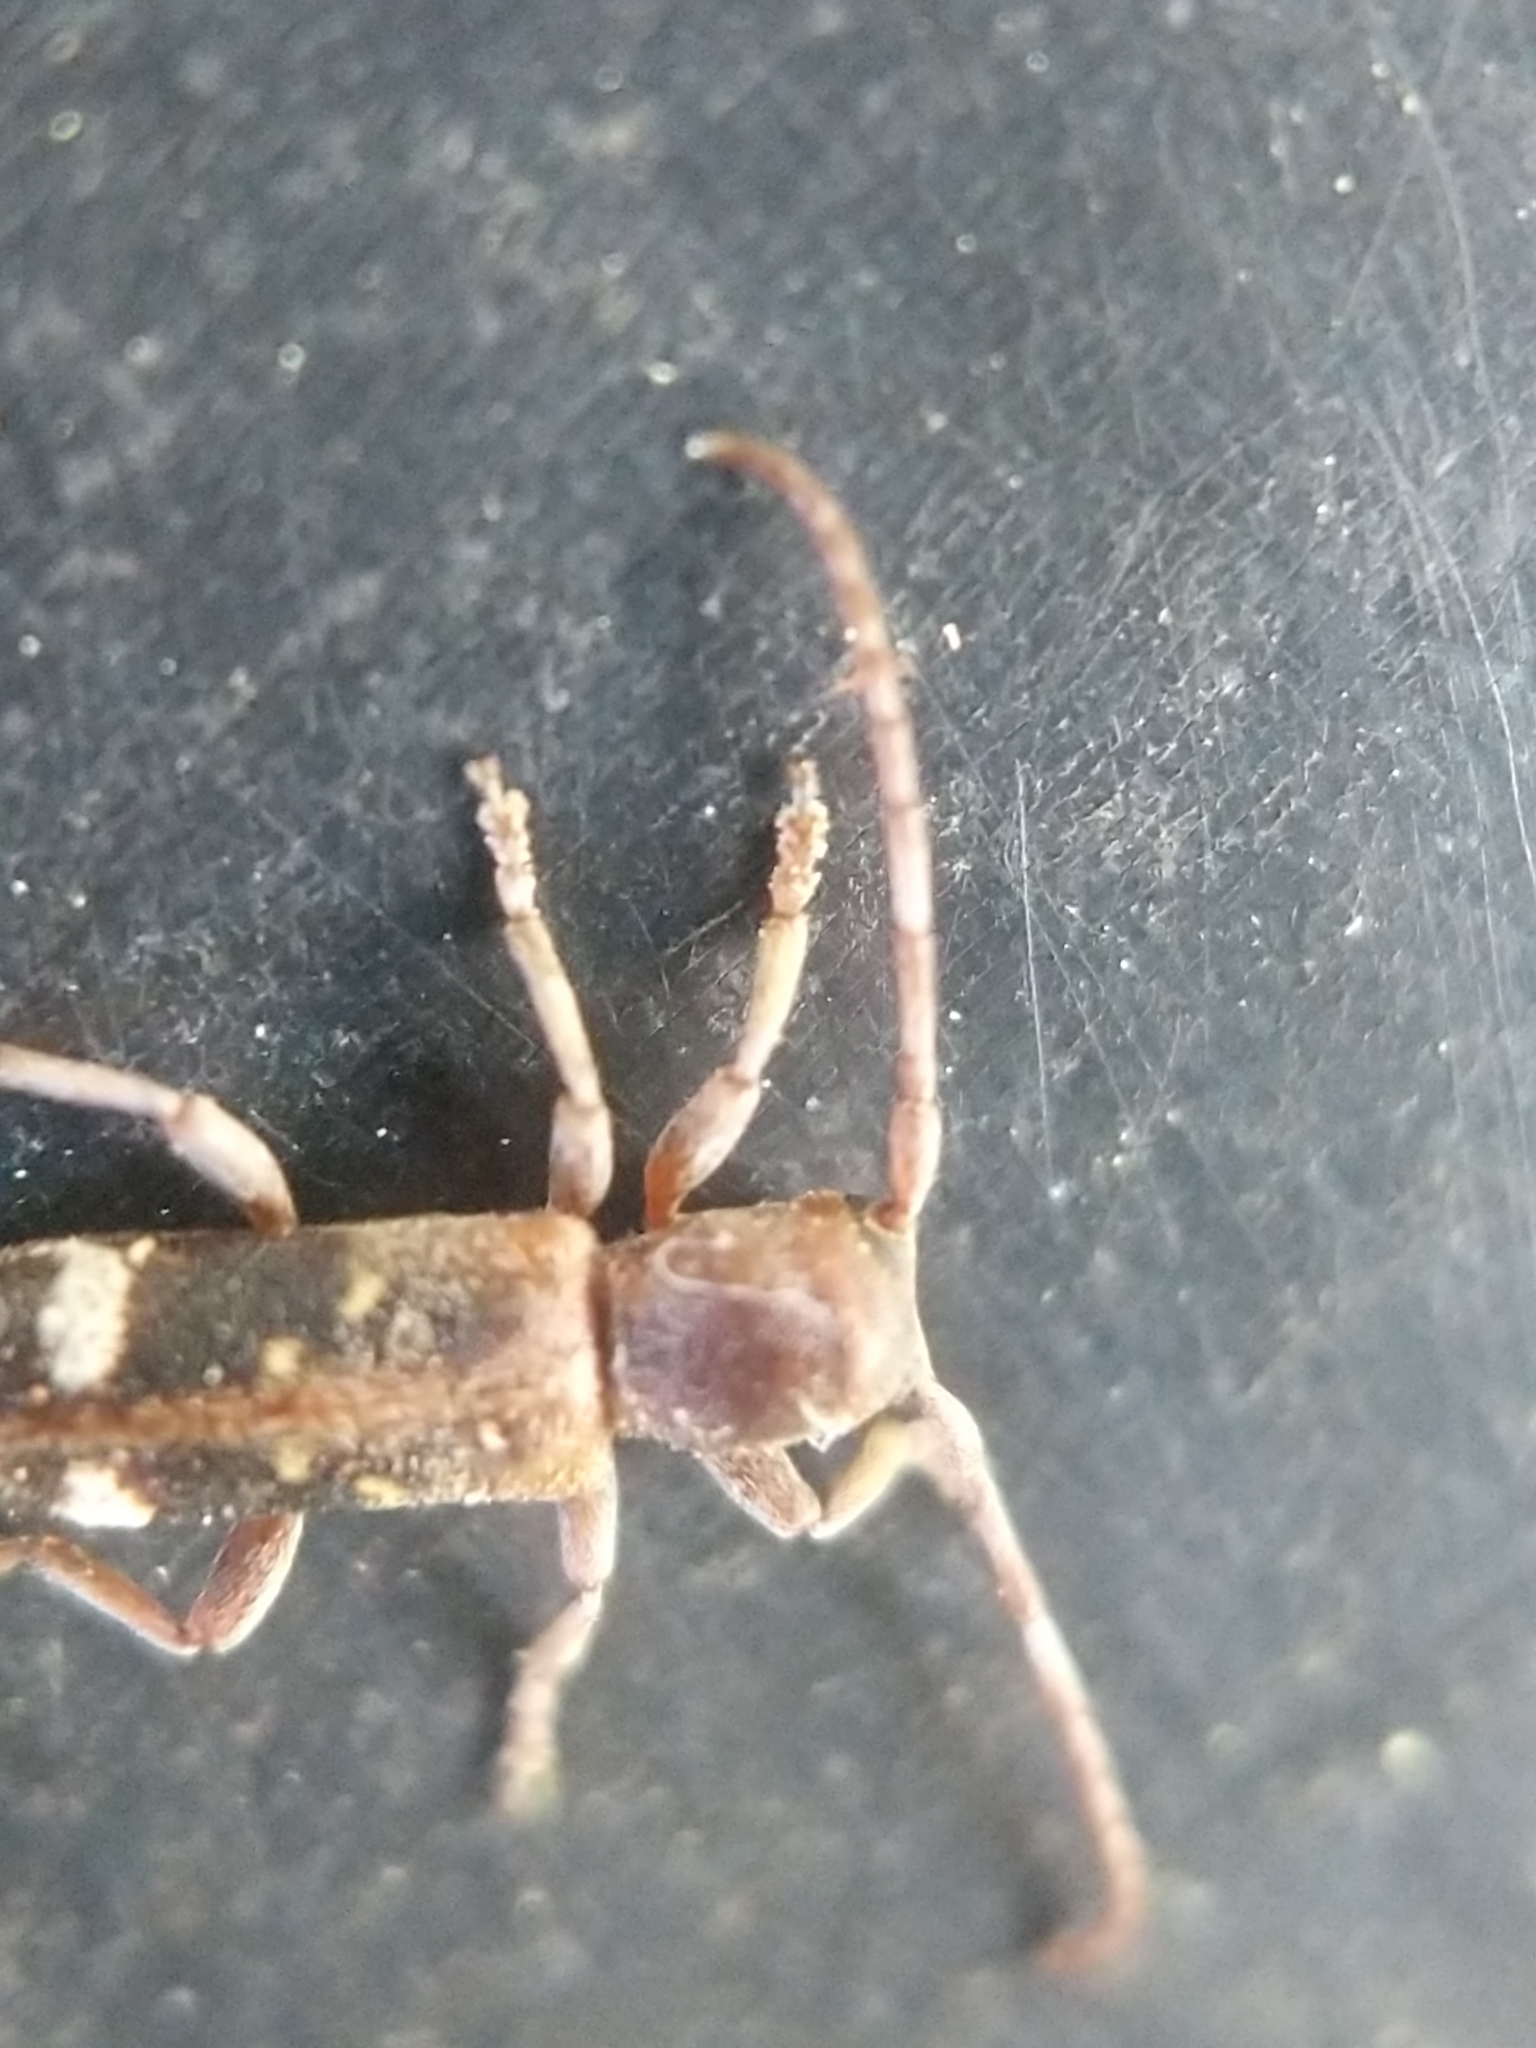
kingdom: Animalia
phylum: Arthropoda
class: Insecta
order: Coleoptera
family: Cerambycidae
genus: Psenocerus
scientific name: Psenocerus supernotatus
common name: Currant-tip borer
